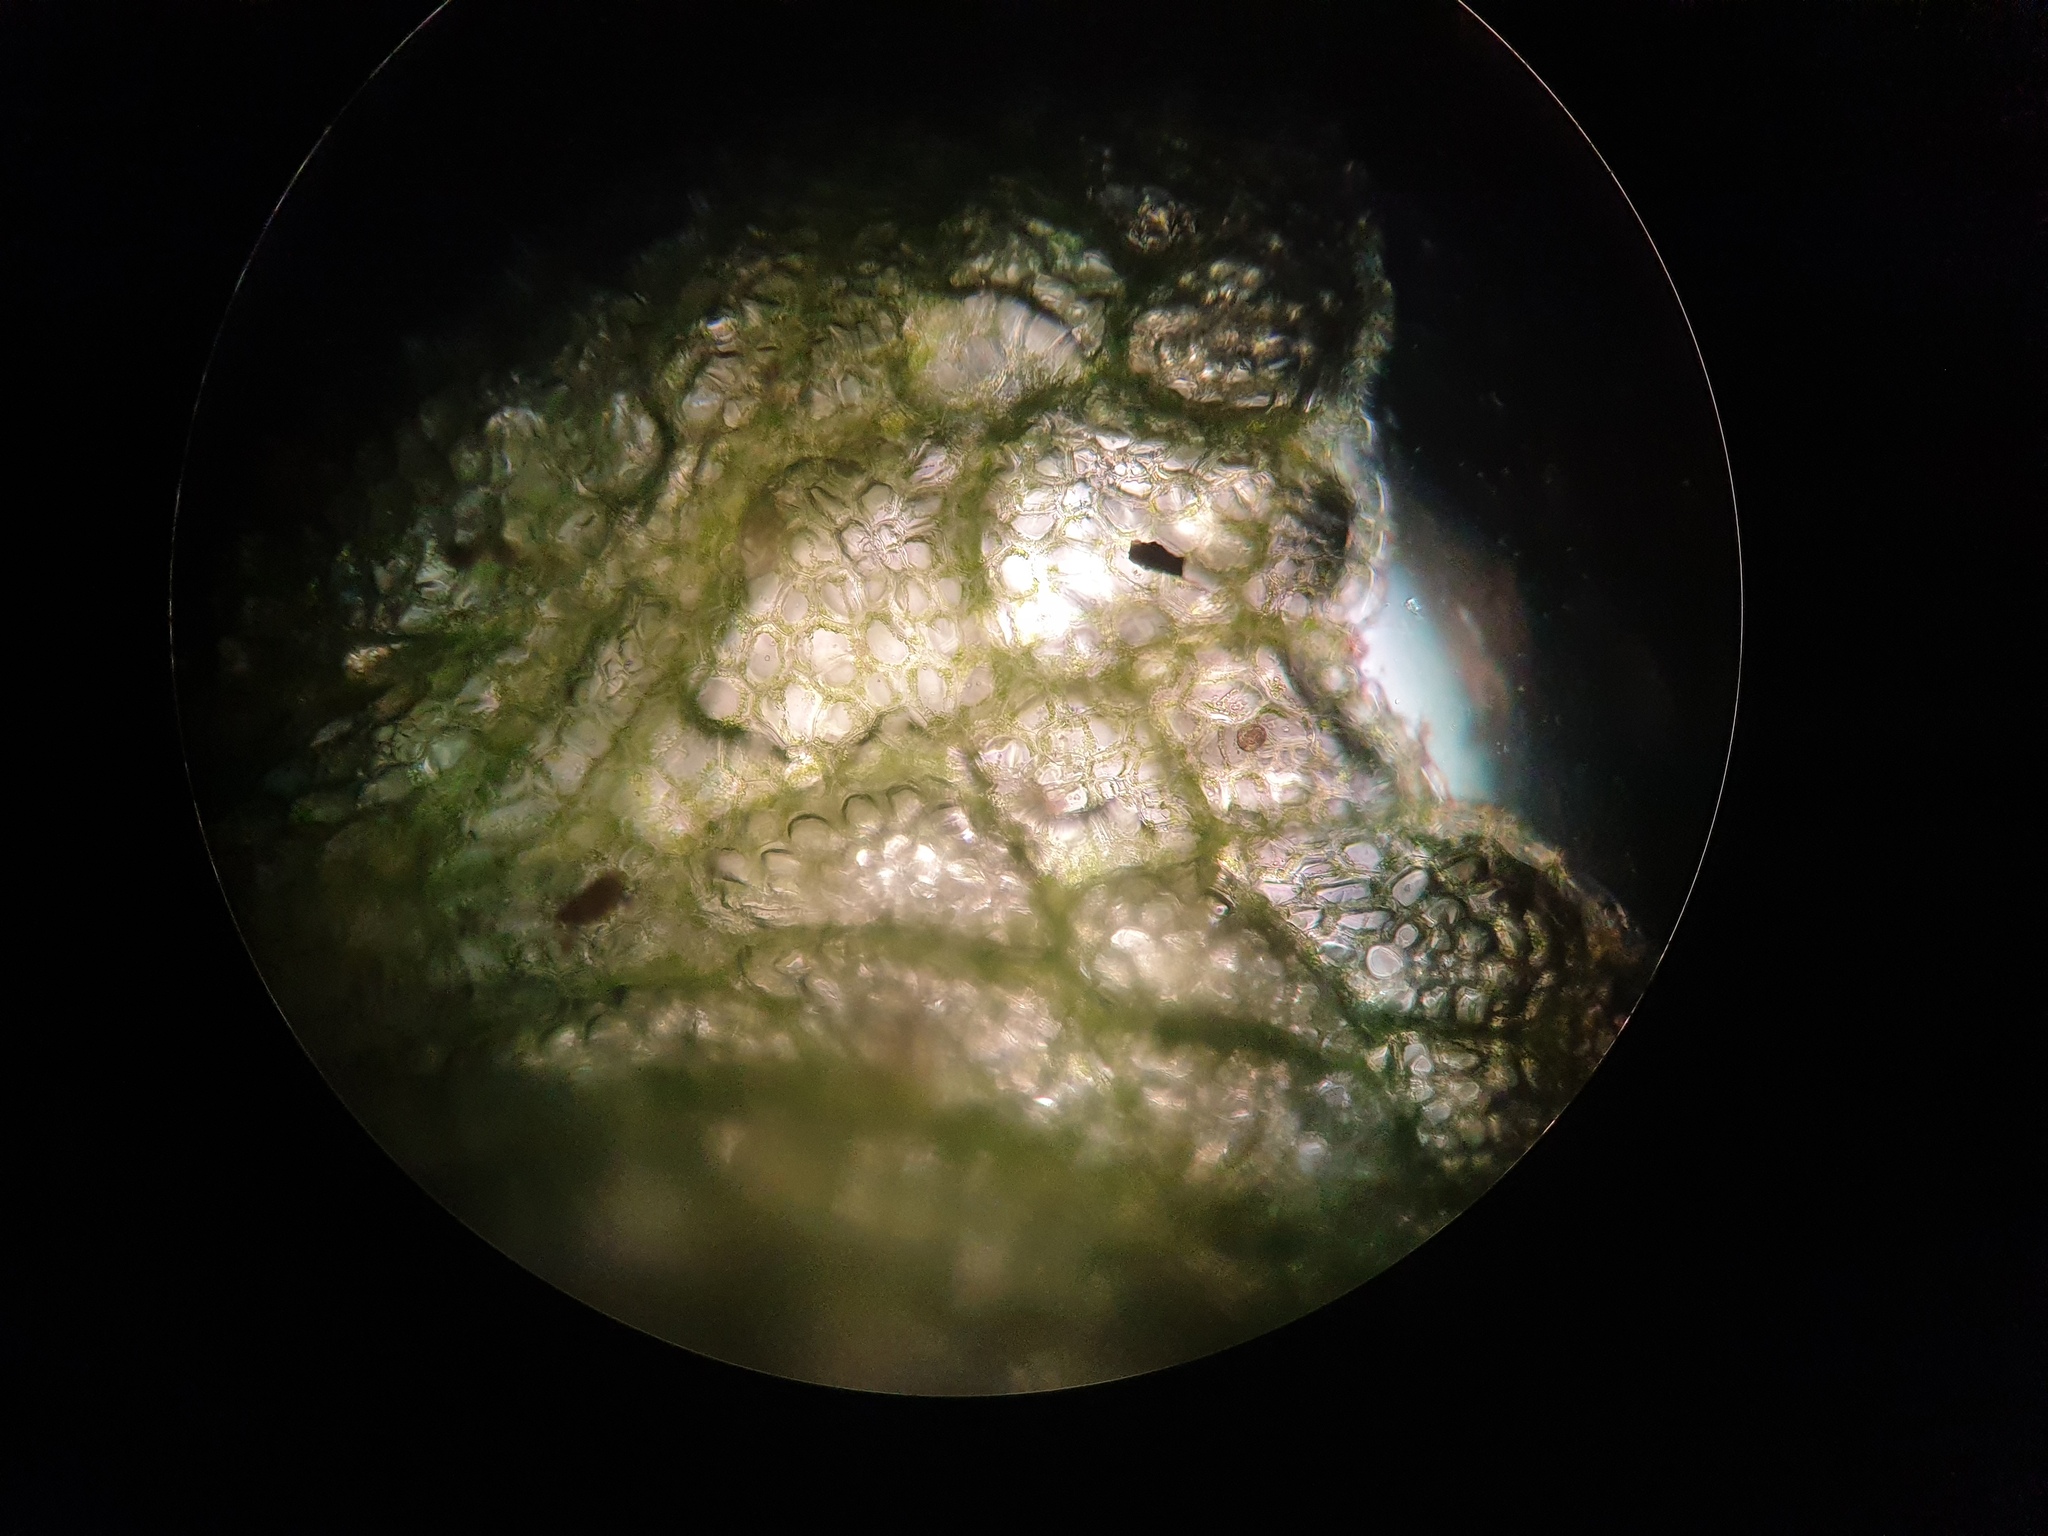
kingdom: Plantae
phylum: Marchantiophyta
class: Marchantiopsida
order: Marchantiales
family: Ricciaceae
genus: Riccia
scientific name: Riccia rhenana
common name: Pond crystalwort
